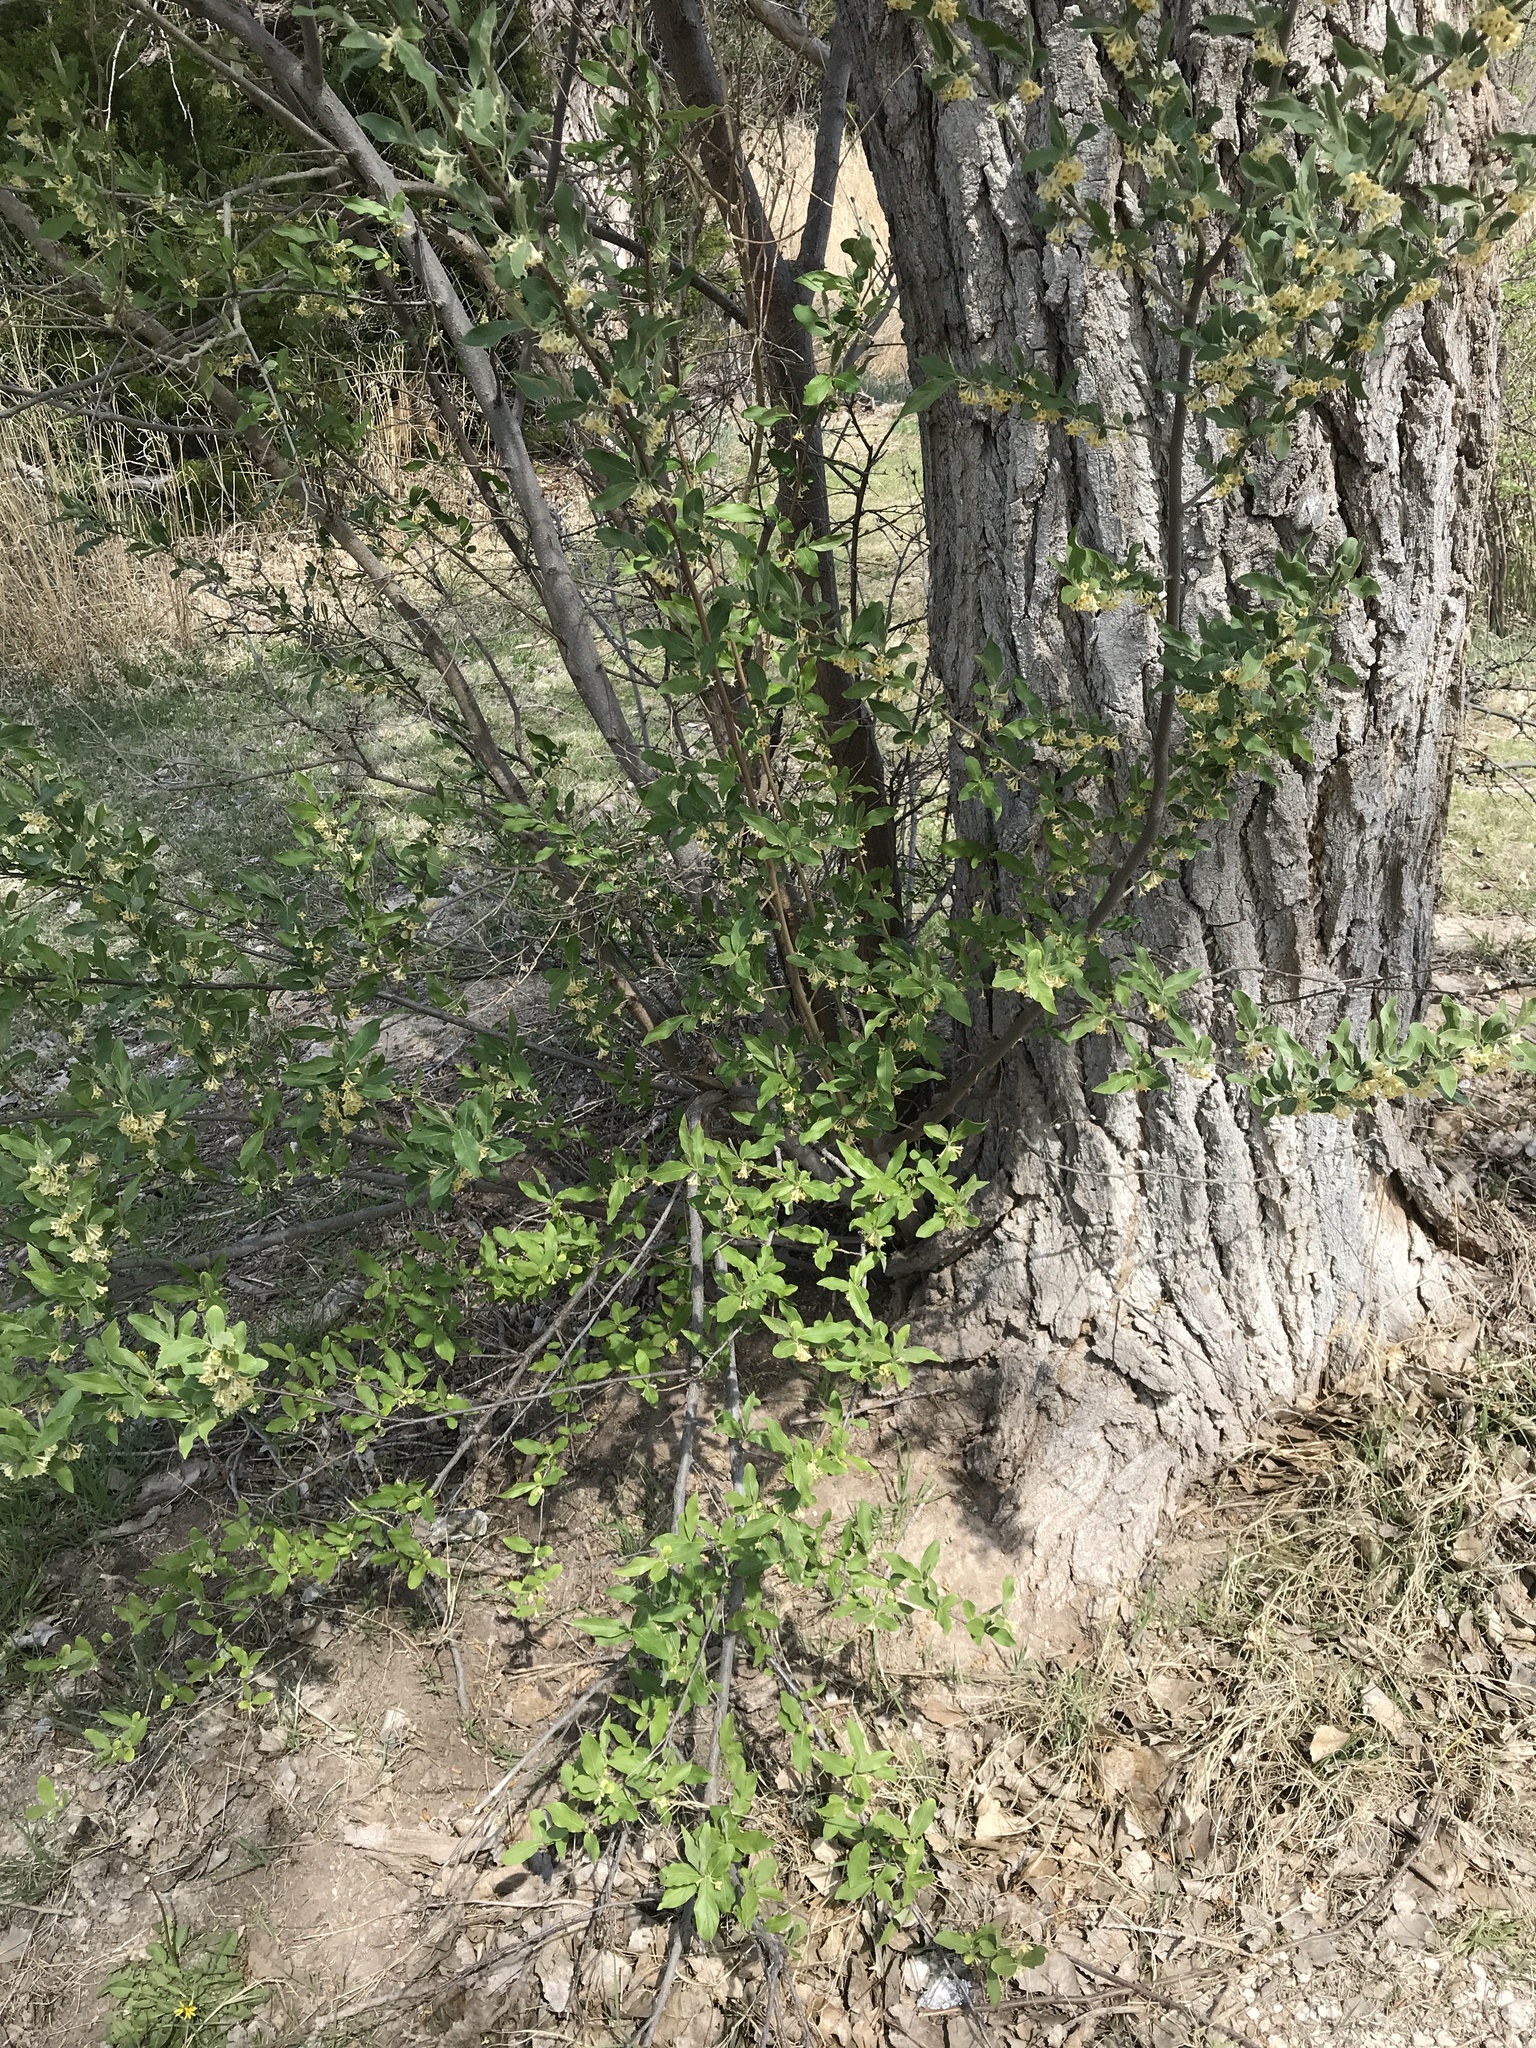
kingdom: Plantae
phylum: Tracheophyta
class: Magnoliopsida
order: Rosales
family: Elaeagnaceae
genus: Elaeagnus
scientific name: Elaeagnus umbellata
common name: Autumn olive
